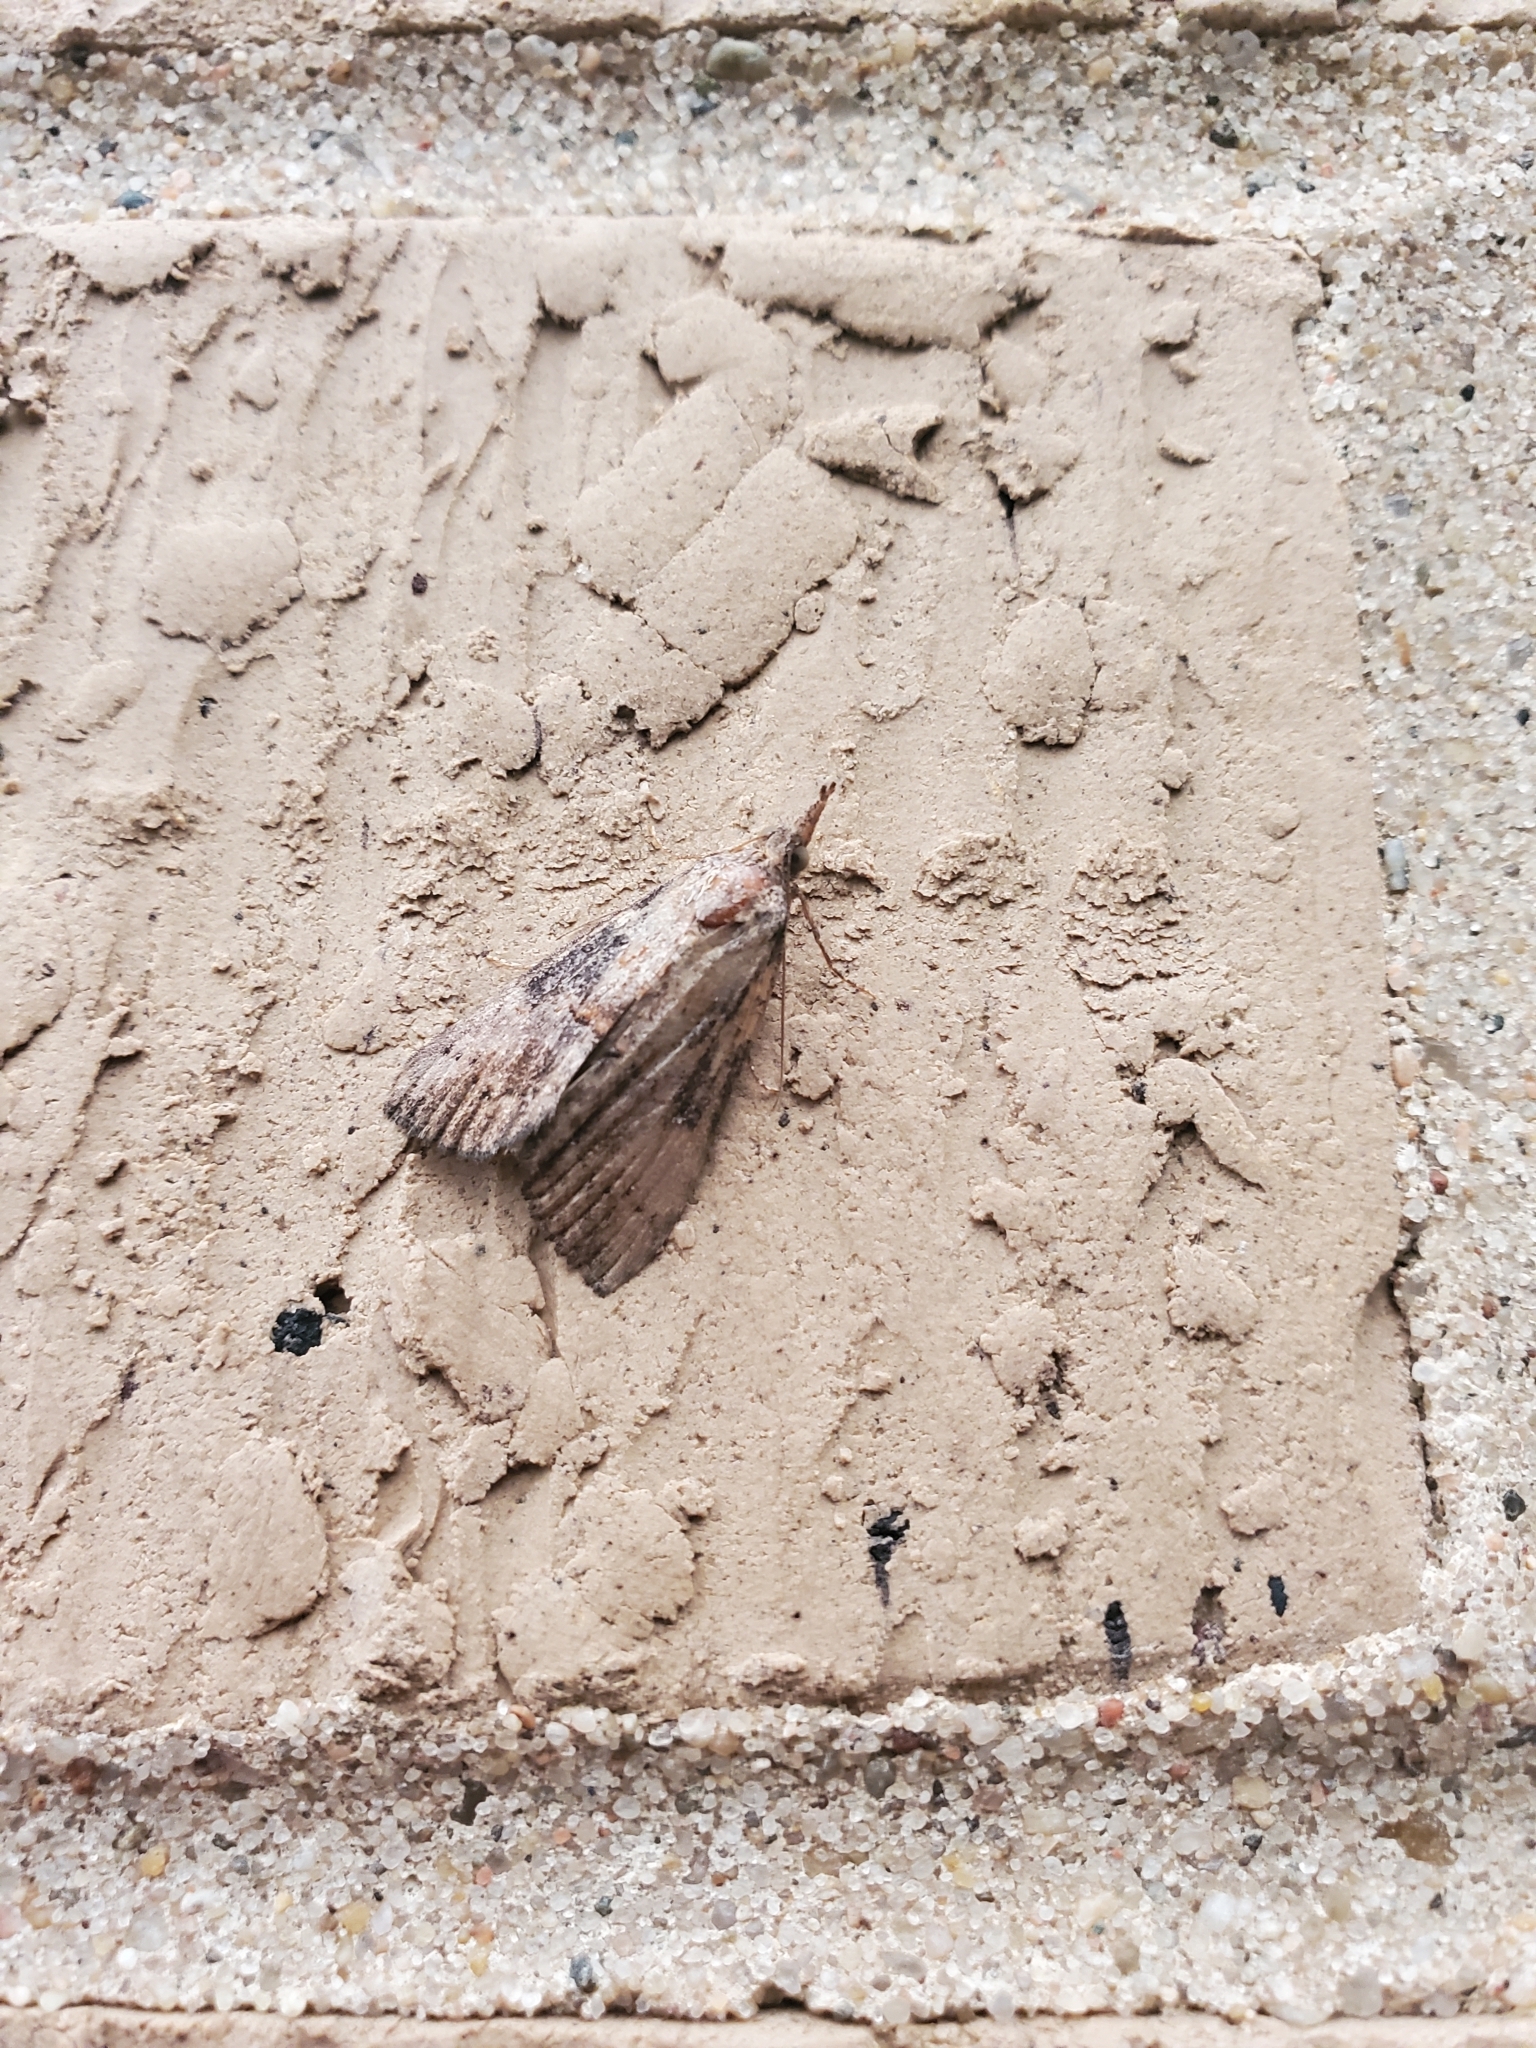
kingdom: Animalia
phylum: Arthropoda
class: Insecta
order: Lepidoptera
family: Erebidae
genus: Hypena
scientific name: Hypena scabra
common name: Green cloverworm
